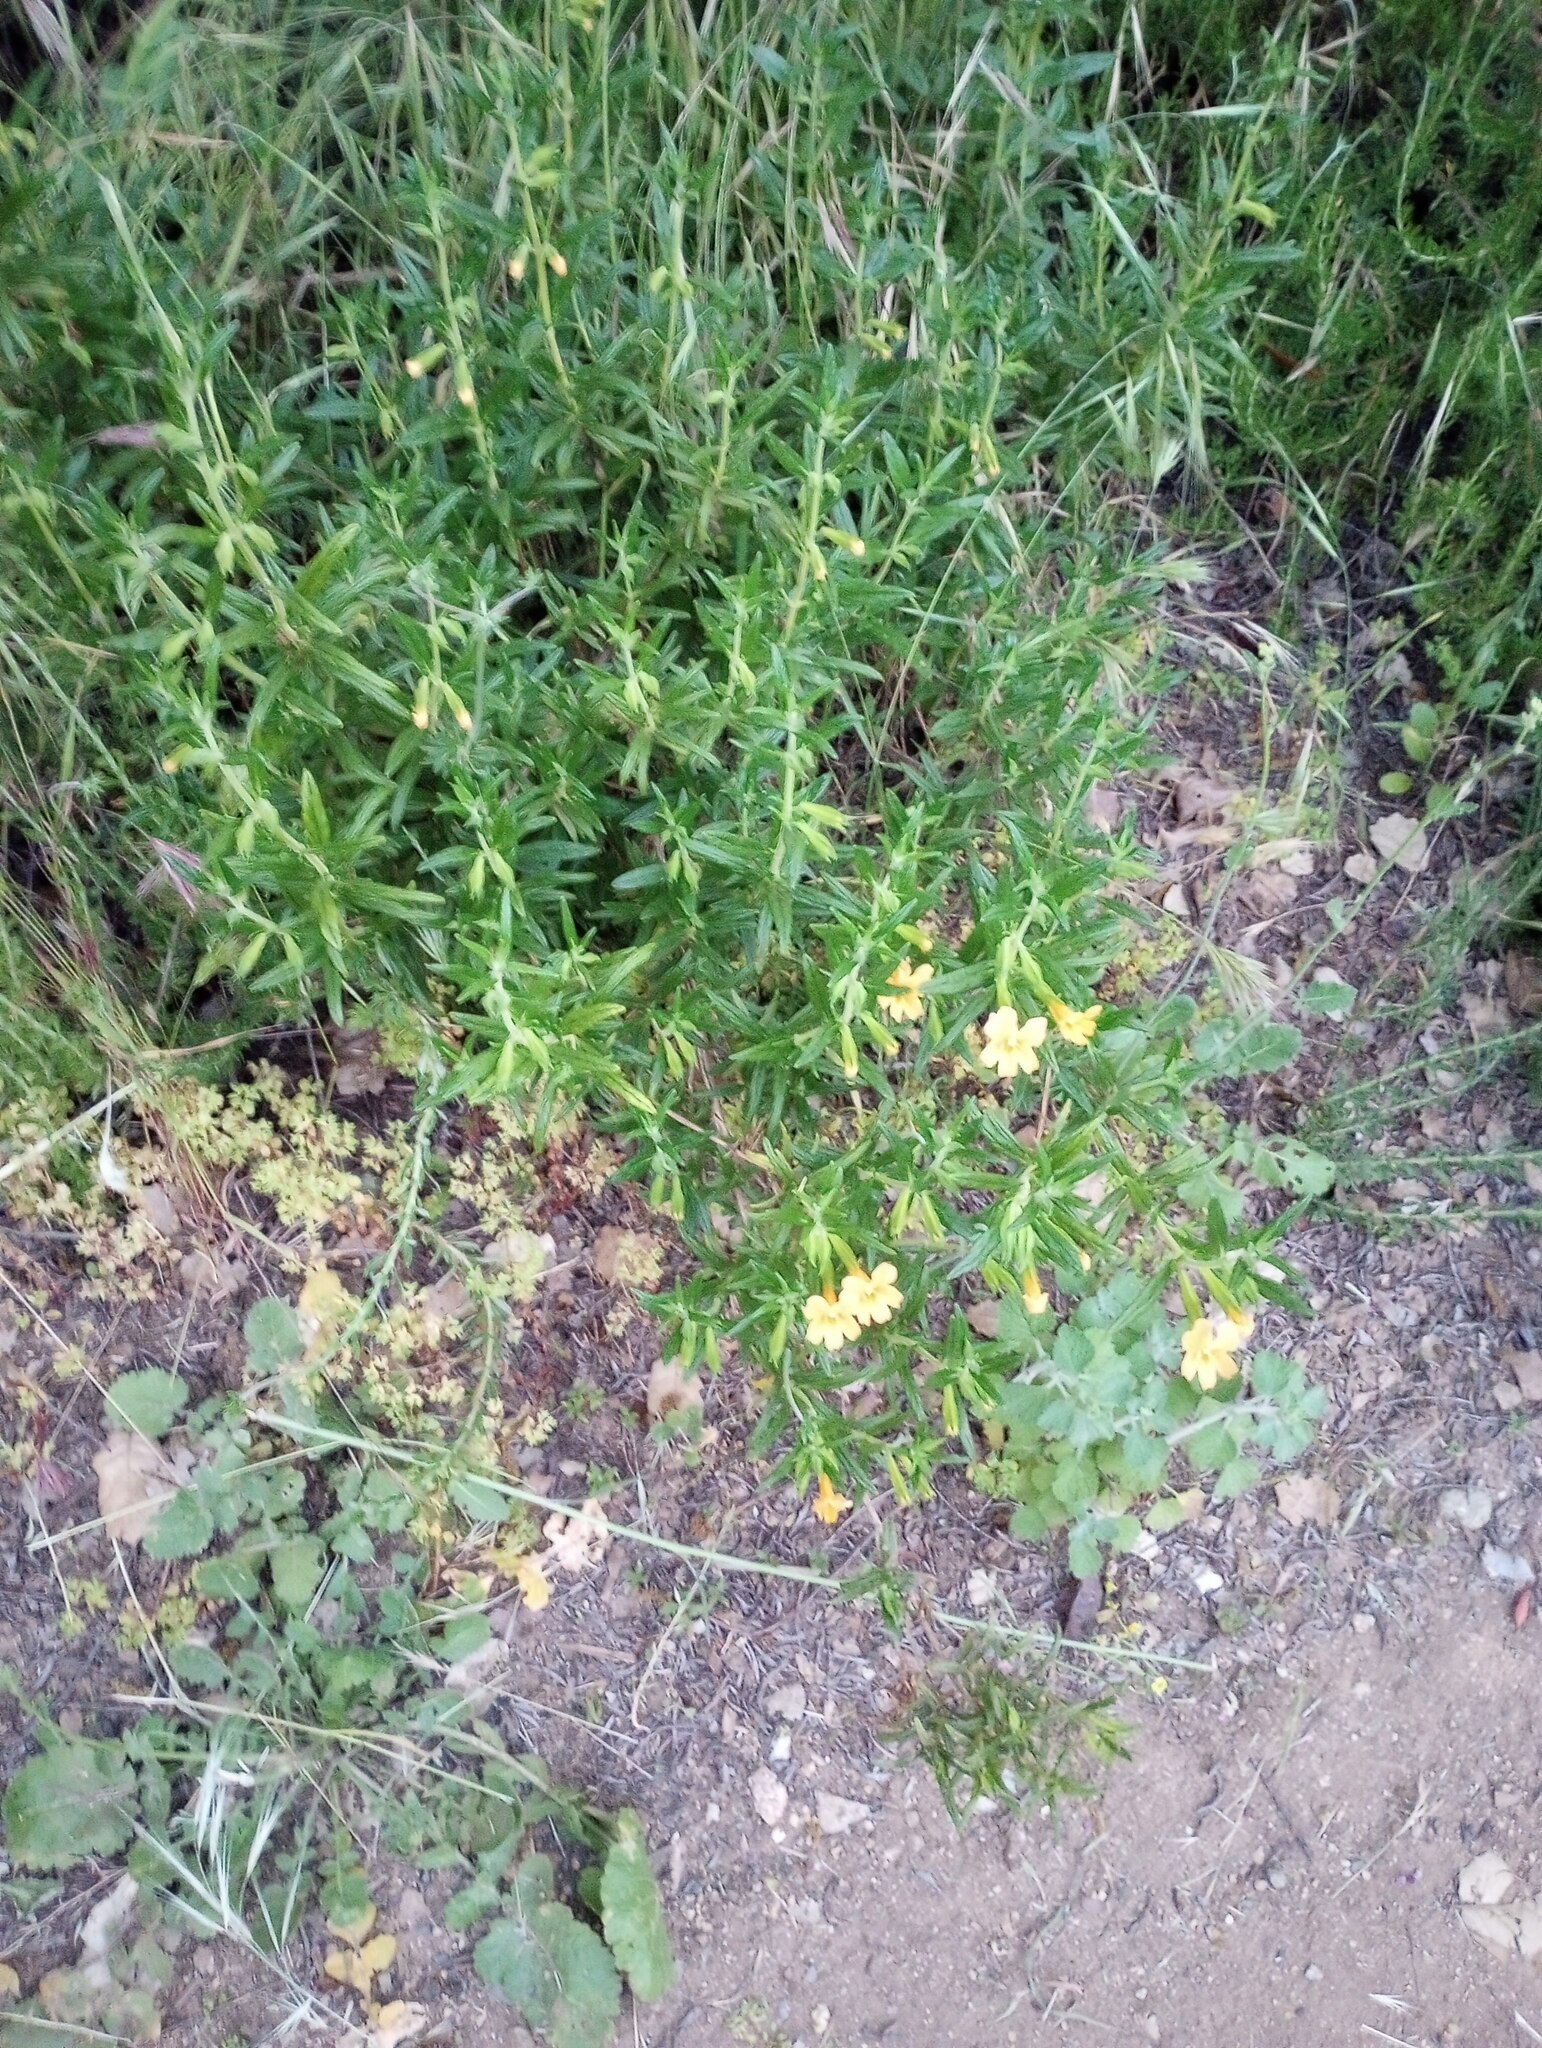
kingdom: Plantae
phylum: Tracheophyta
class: Magnoliopsida
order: Lamiales
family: Phrymaceae
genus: Diplacus
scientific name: Diplacus longiflorus
